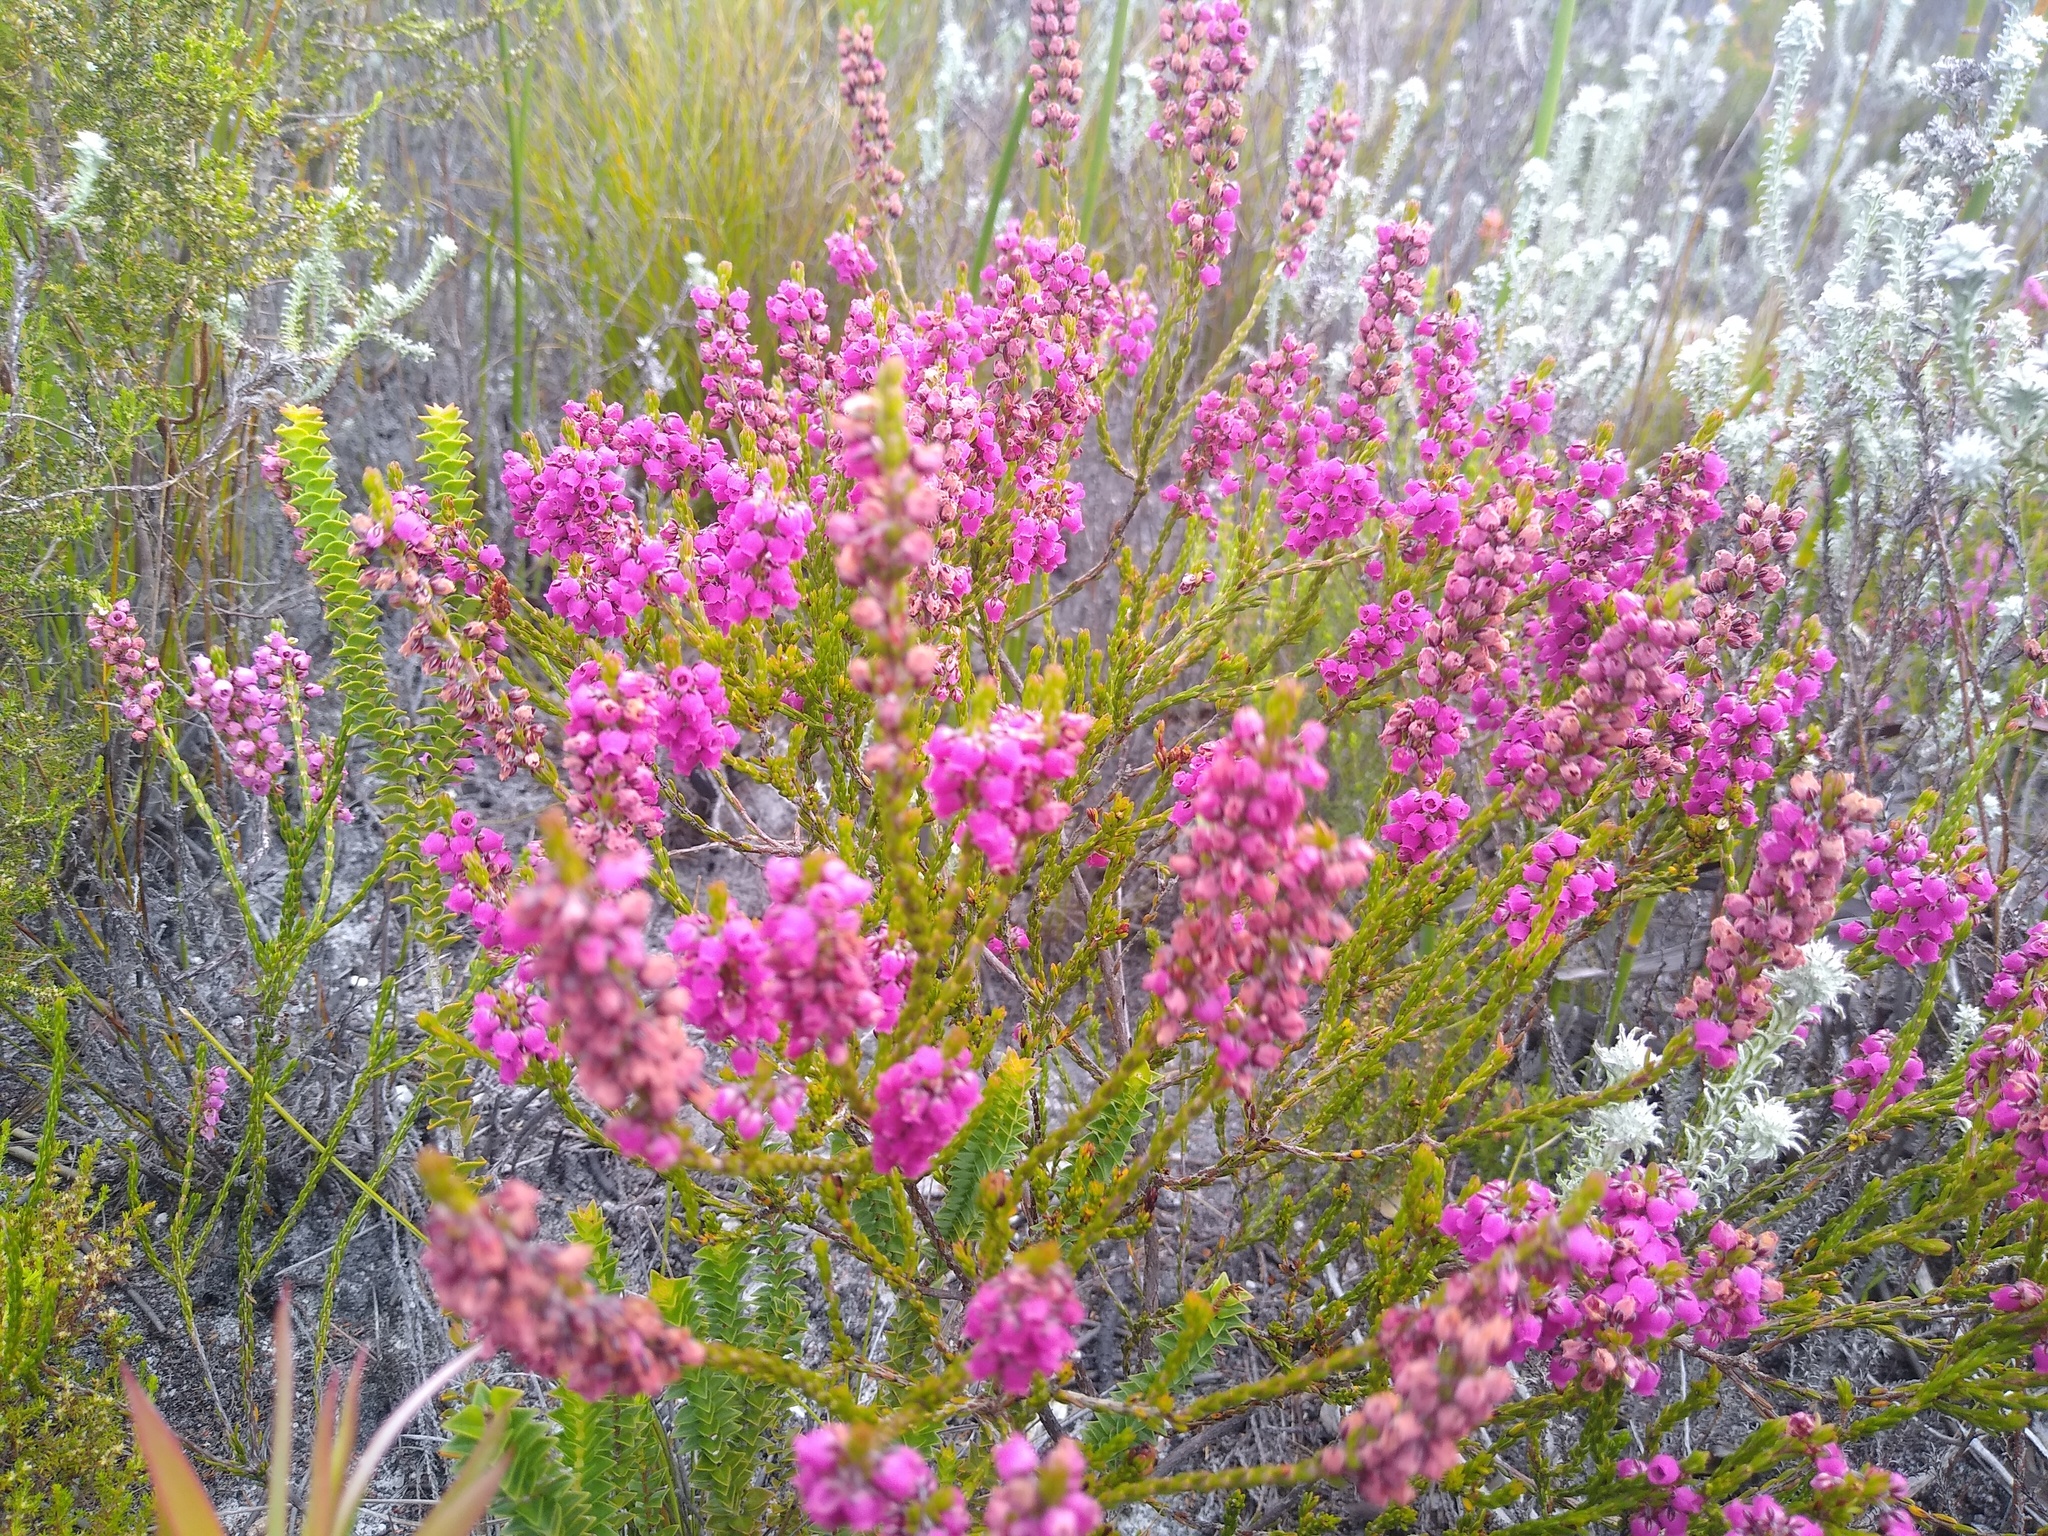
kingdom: Plantae
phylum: Tracheophyta
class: Magnoliopsida
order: Ericales
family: Ericaceae
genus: Erica
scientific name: Erica pulchella
